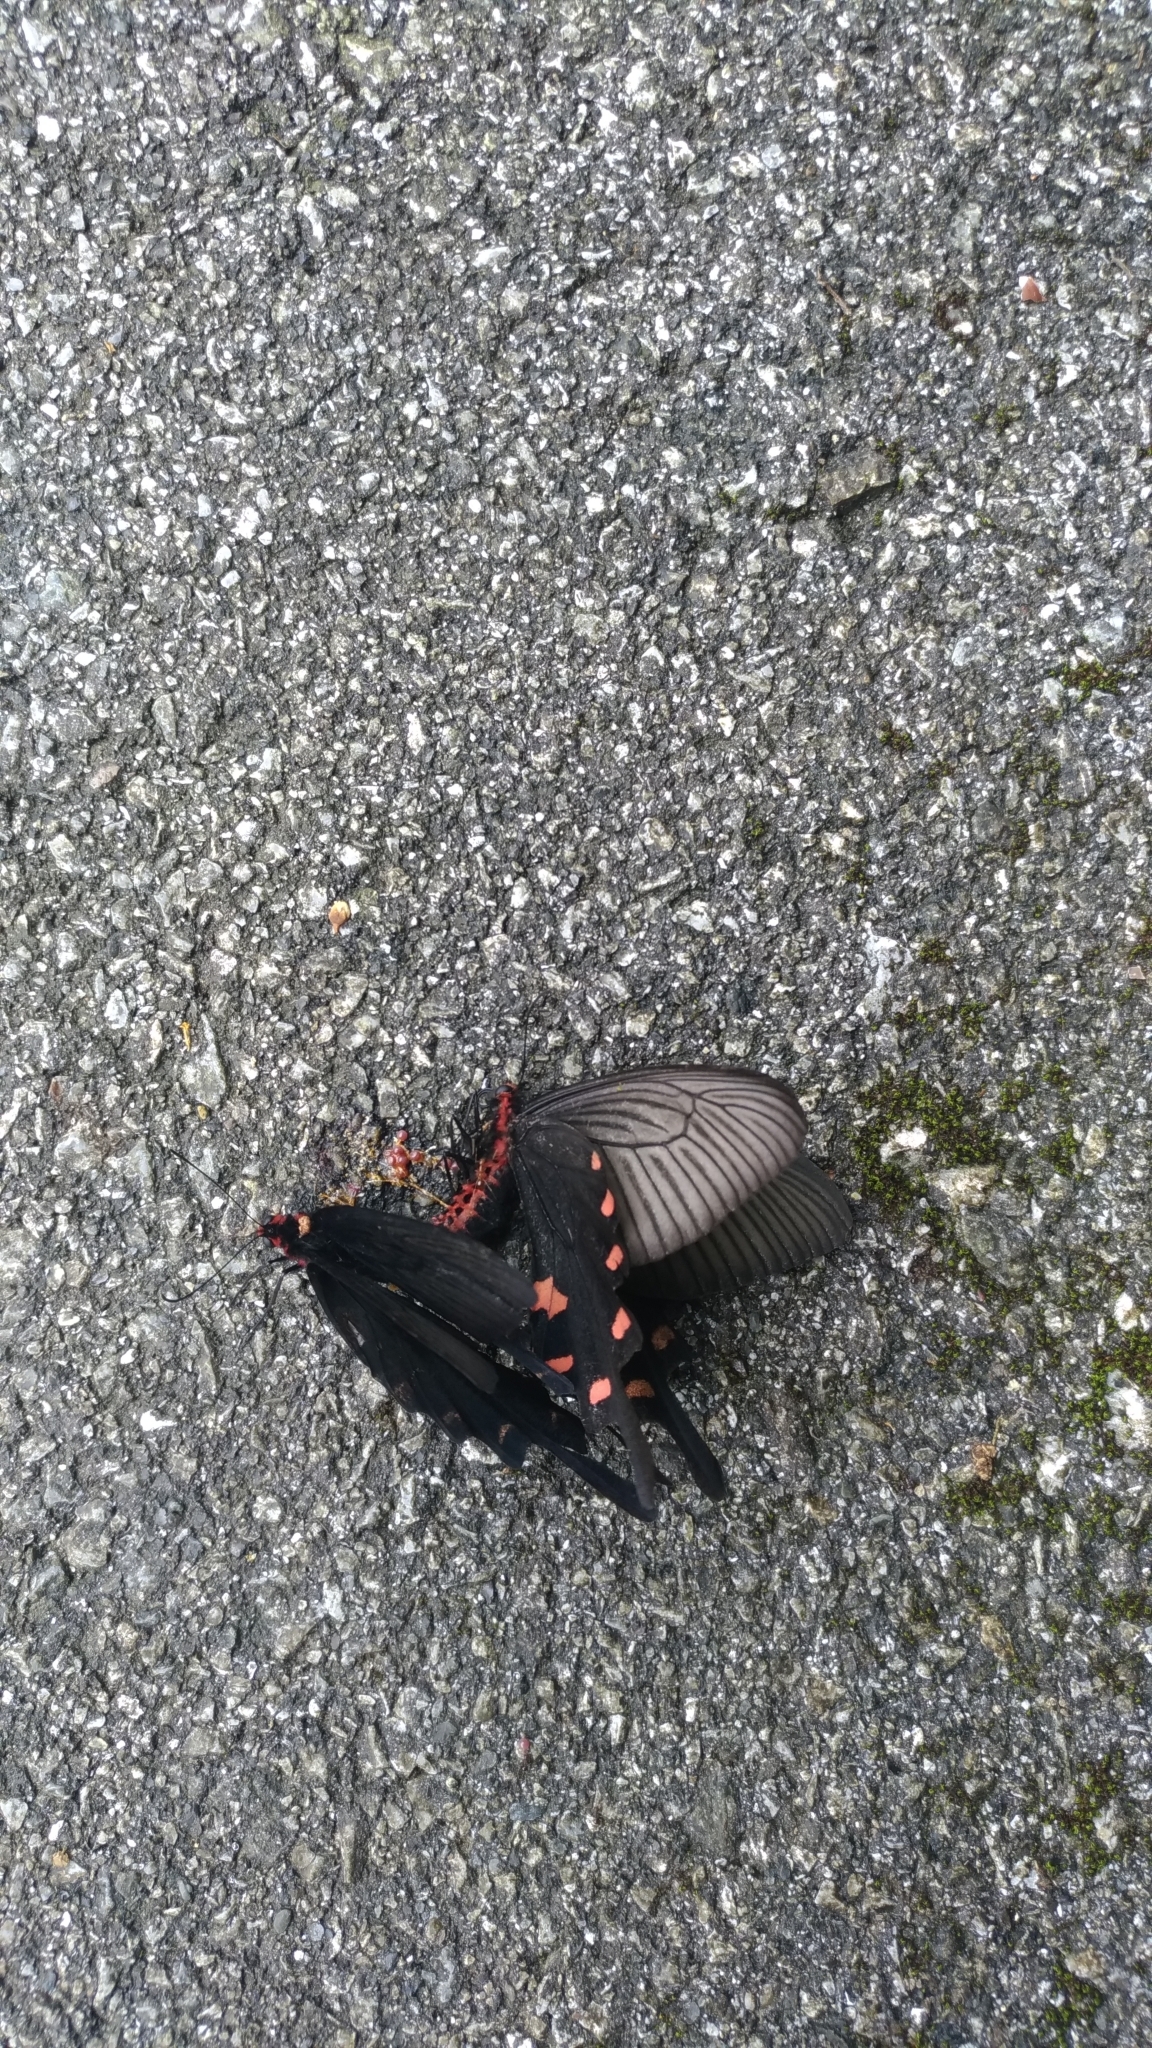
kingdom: Animalia
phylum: Arthropoda
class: Insecta
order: Lepidoptera
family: Papilionidae
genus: Byasa
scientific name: Byasa alcinous
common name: Chinese windmill
